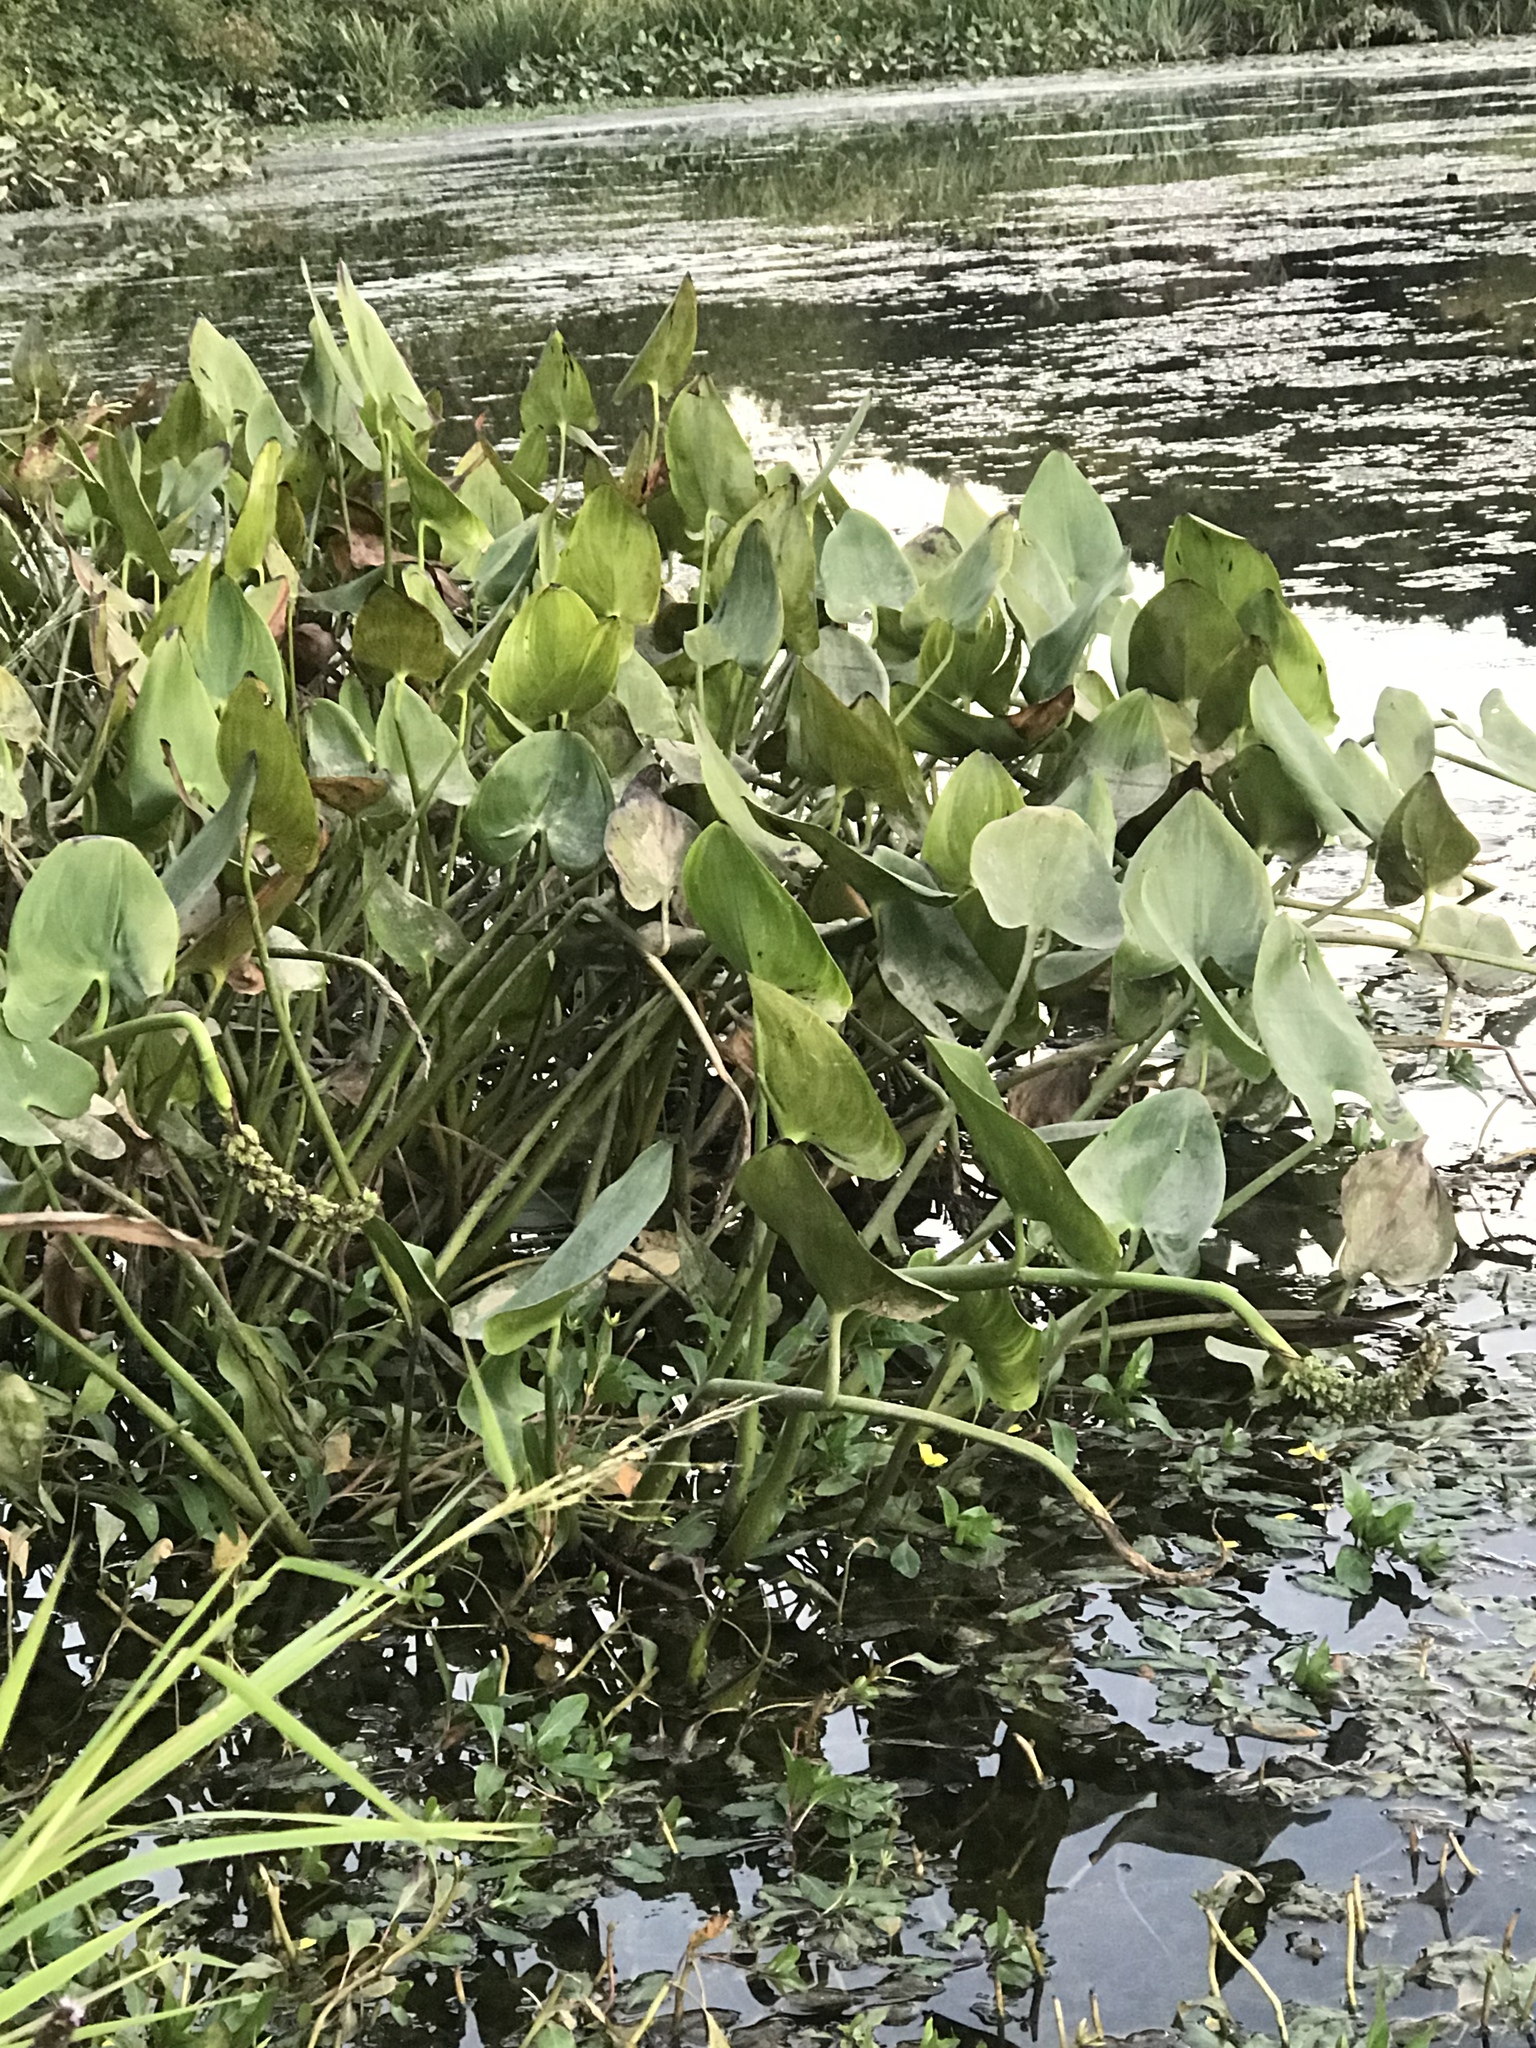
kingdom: Plantae
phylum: Tracheophyta
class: Liliopsida
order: Commelinales
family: Pontederiaceae
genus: Pontederia
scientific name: Pontederia cordata
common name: Pickerelweed
